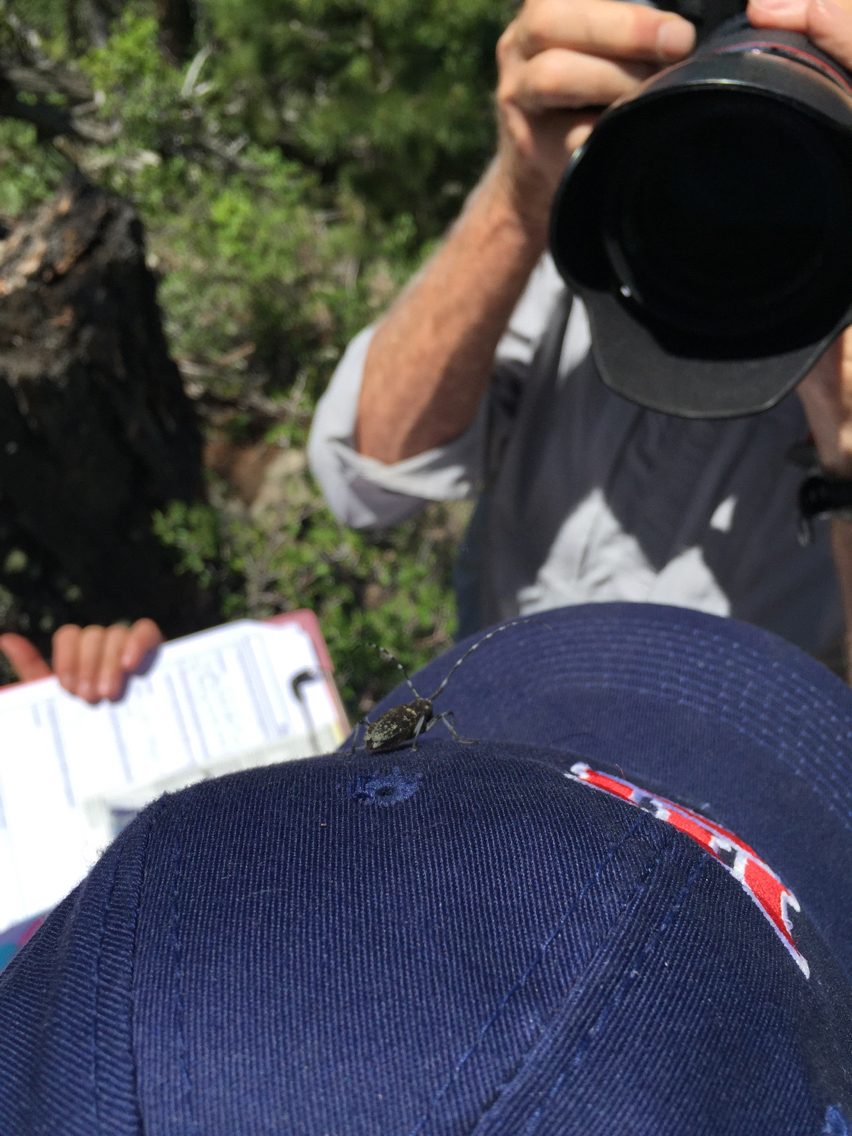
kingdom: Animalia
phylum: Arthropoda
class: Insecta
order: Coleoptera
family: Cerambycidae
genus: Monochamus
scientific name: Monochamus scutellatus
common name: White-spotted sawyer beetle
